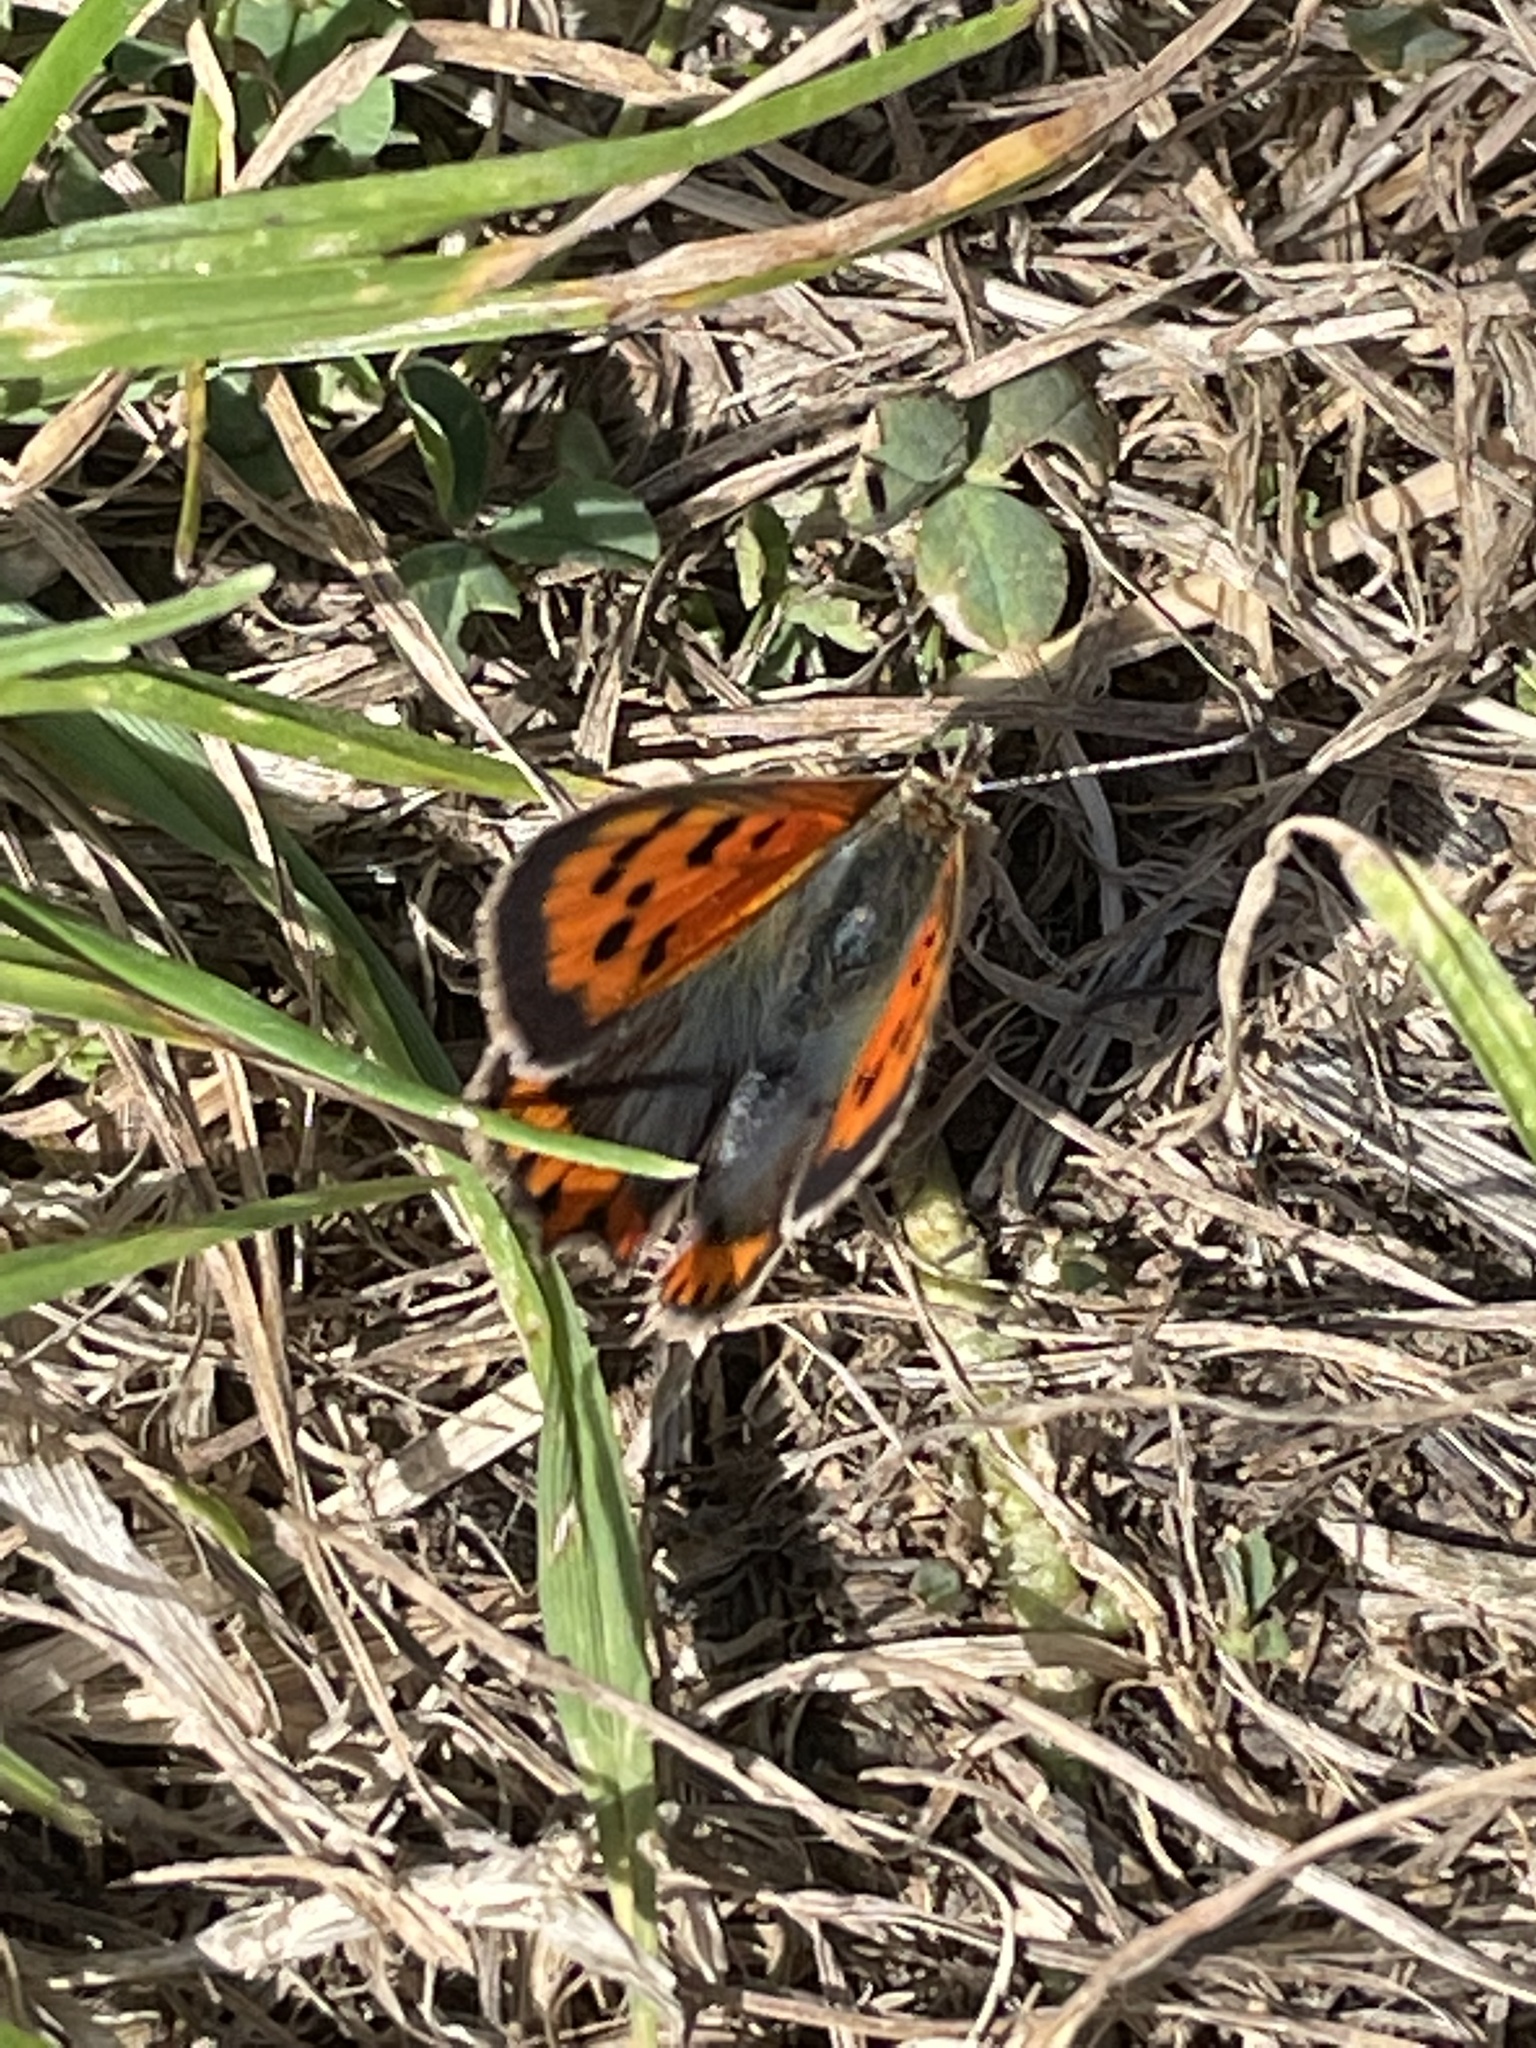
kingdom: Animalia
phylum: Arthropoda
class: Insecta
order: Lepidoptera
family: Lycaenidae
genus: Lycaena
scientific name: Lycaena phlaeas
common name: Small copper
